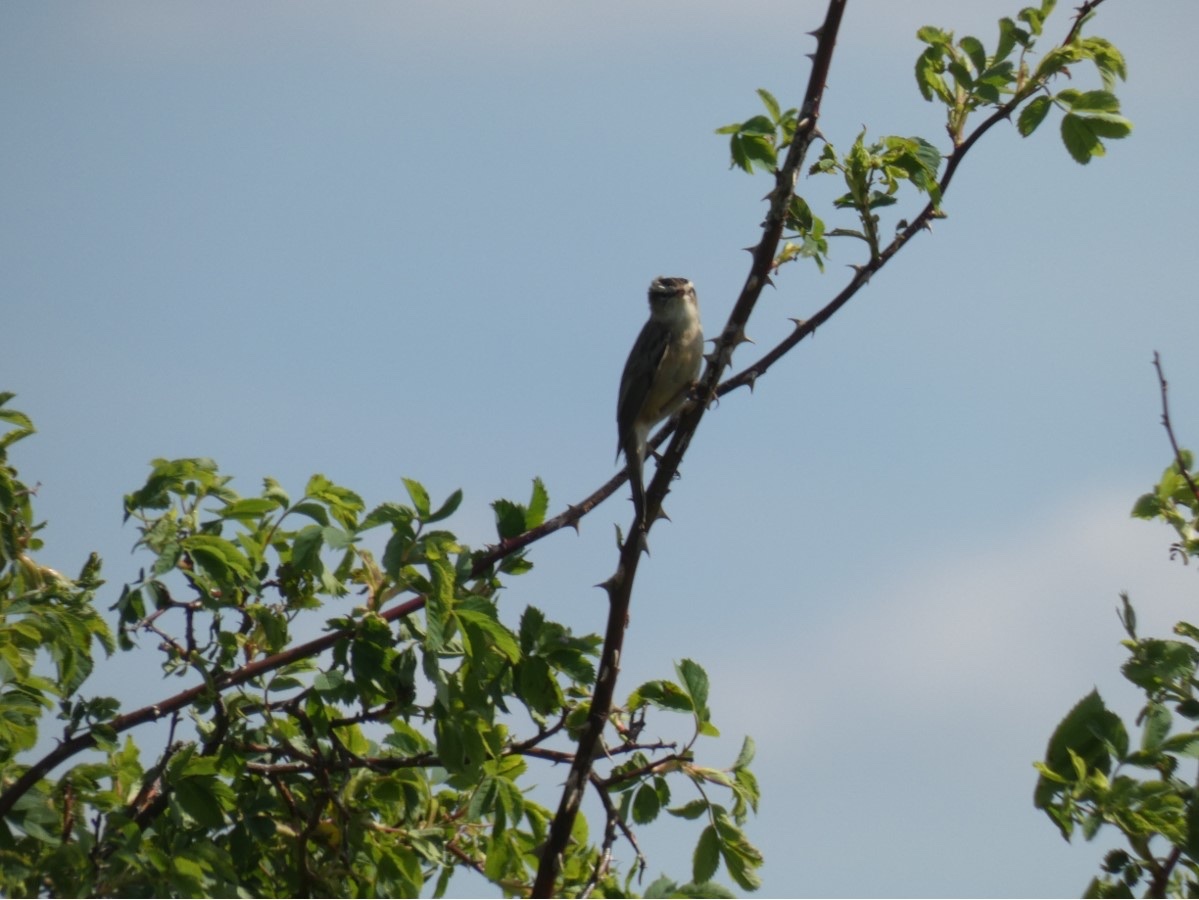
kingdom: Animalia
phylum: Chordata
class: Aves
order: Passeriformes
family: Acrocephalidae
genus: Acrocephalus
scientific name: Acrocephalus schoenobaenus
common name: Sedge warbler
